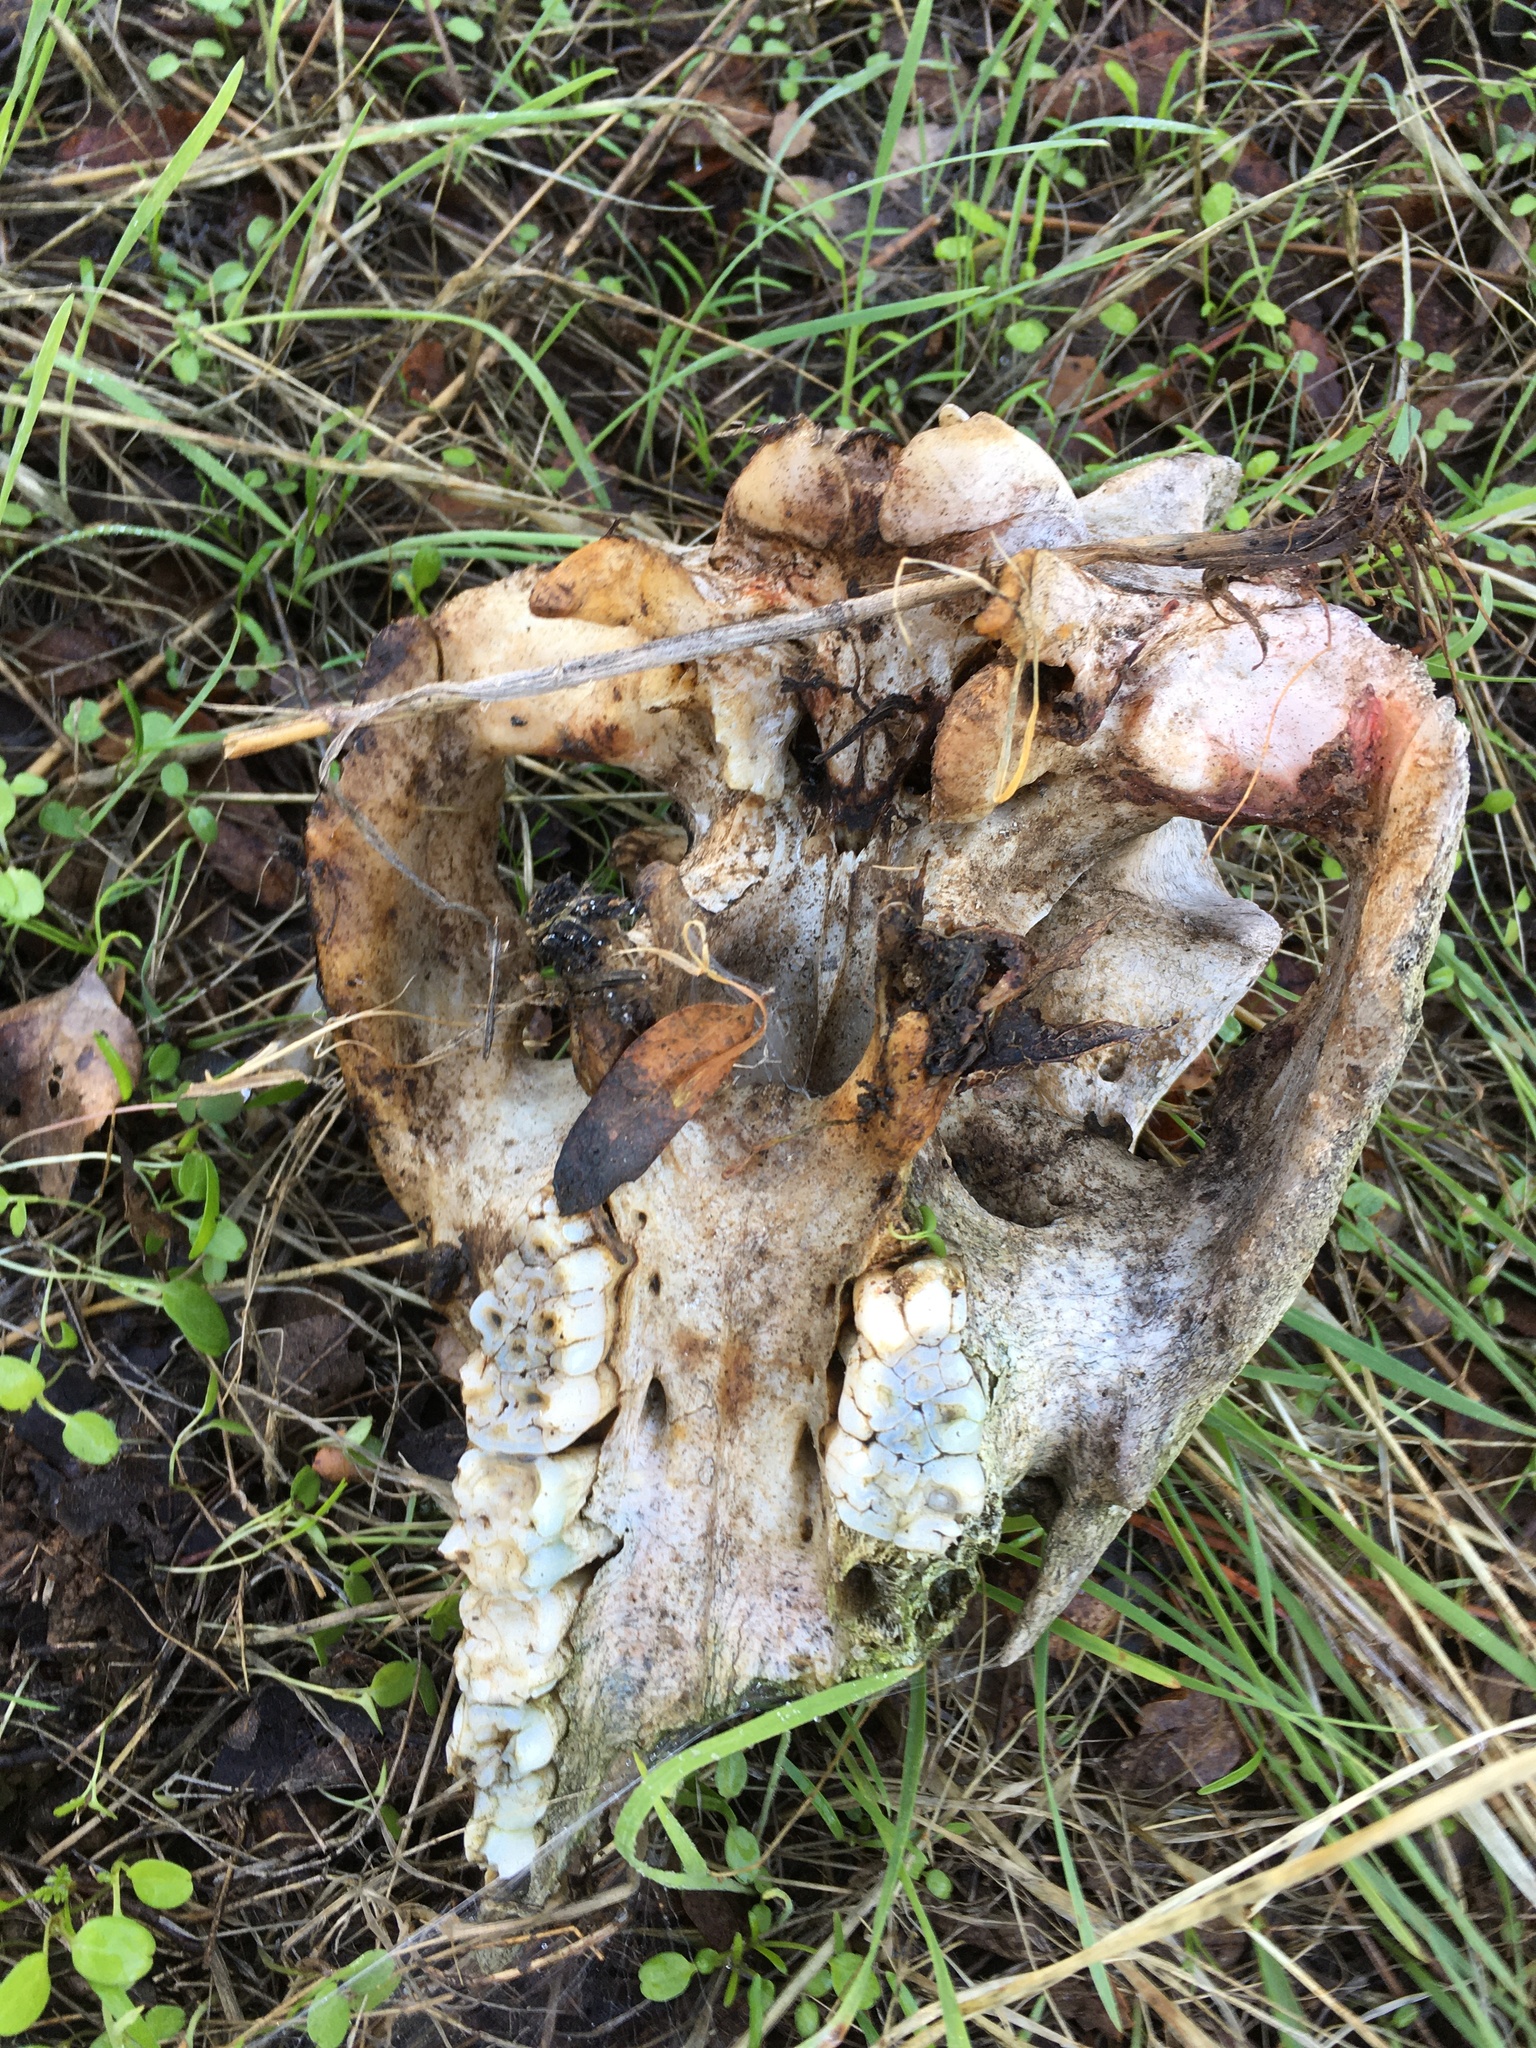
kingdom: Animalia
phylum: Chordata
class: Mammalia
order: Artiodactyla
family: Suidae
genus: Sus
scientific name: Sus scrofa
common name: Wild boar
